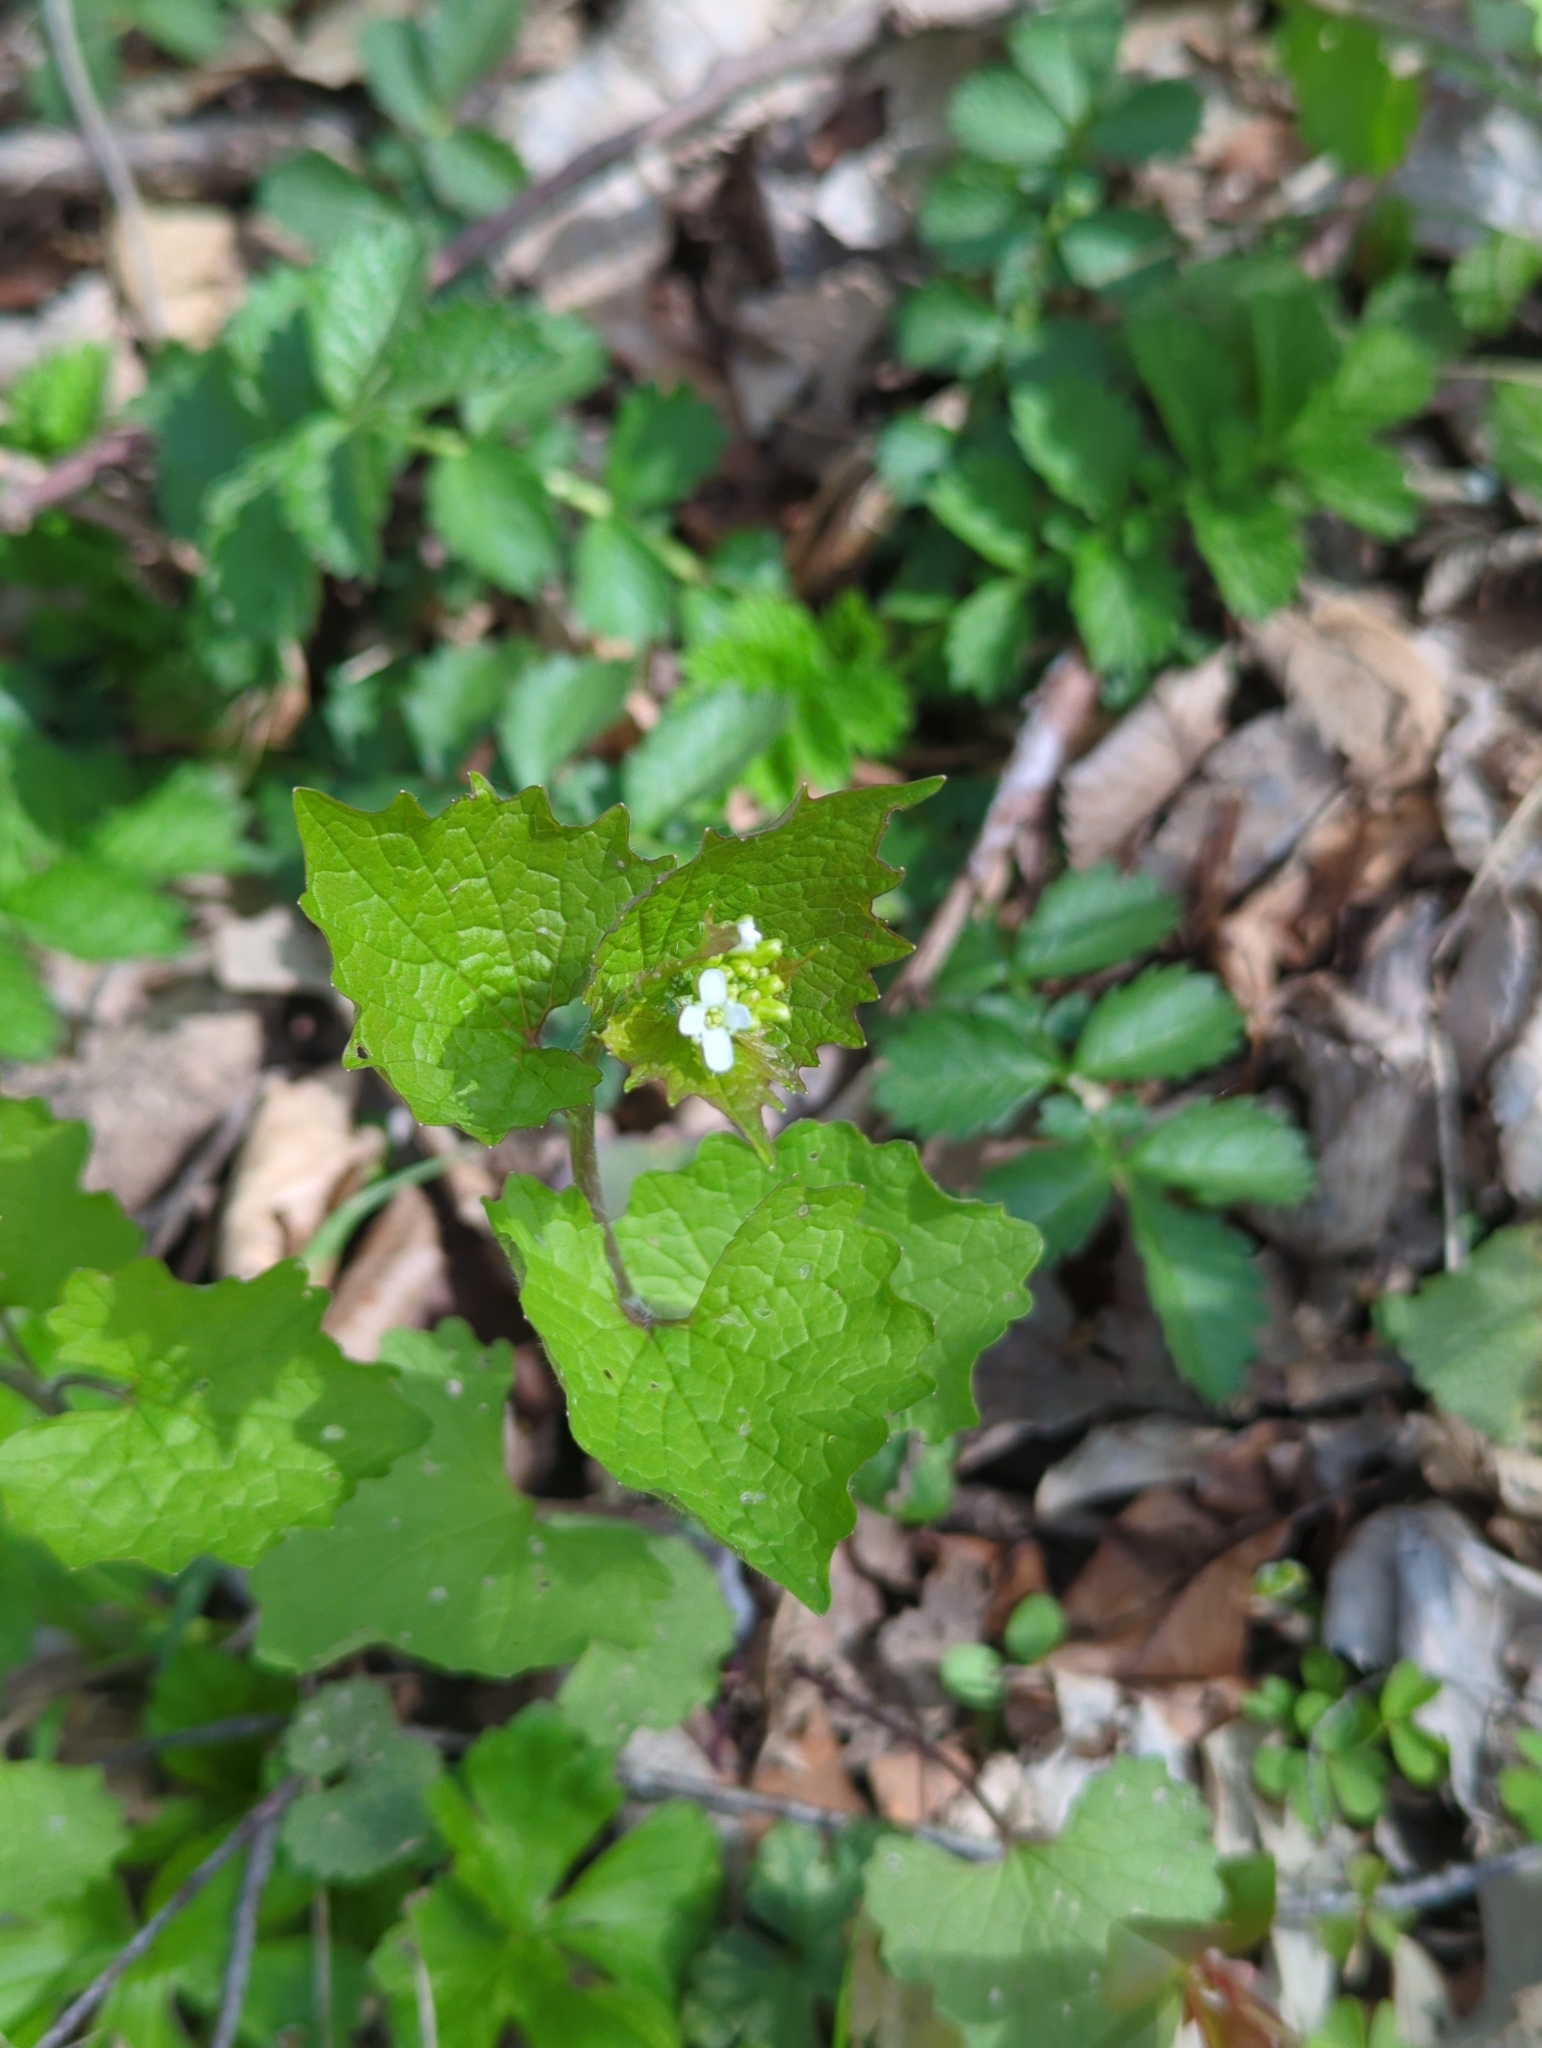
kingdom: Plantae
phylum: Tracheophyta
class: Magnoliopsida
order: Brassicales
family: Brassicaceae
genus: Alliaria
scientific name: Alliaria petiolata
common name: Garlic mustard
